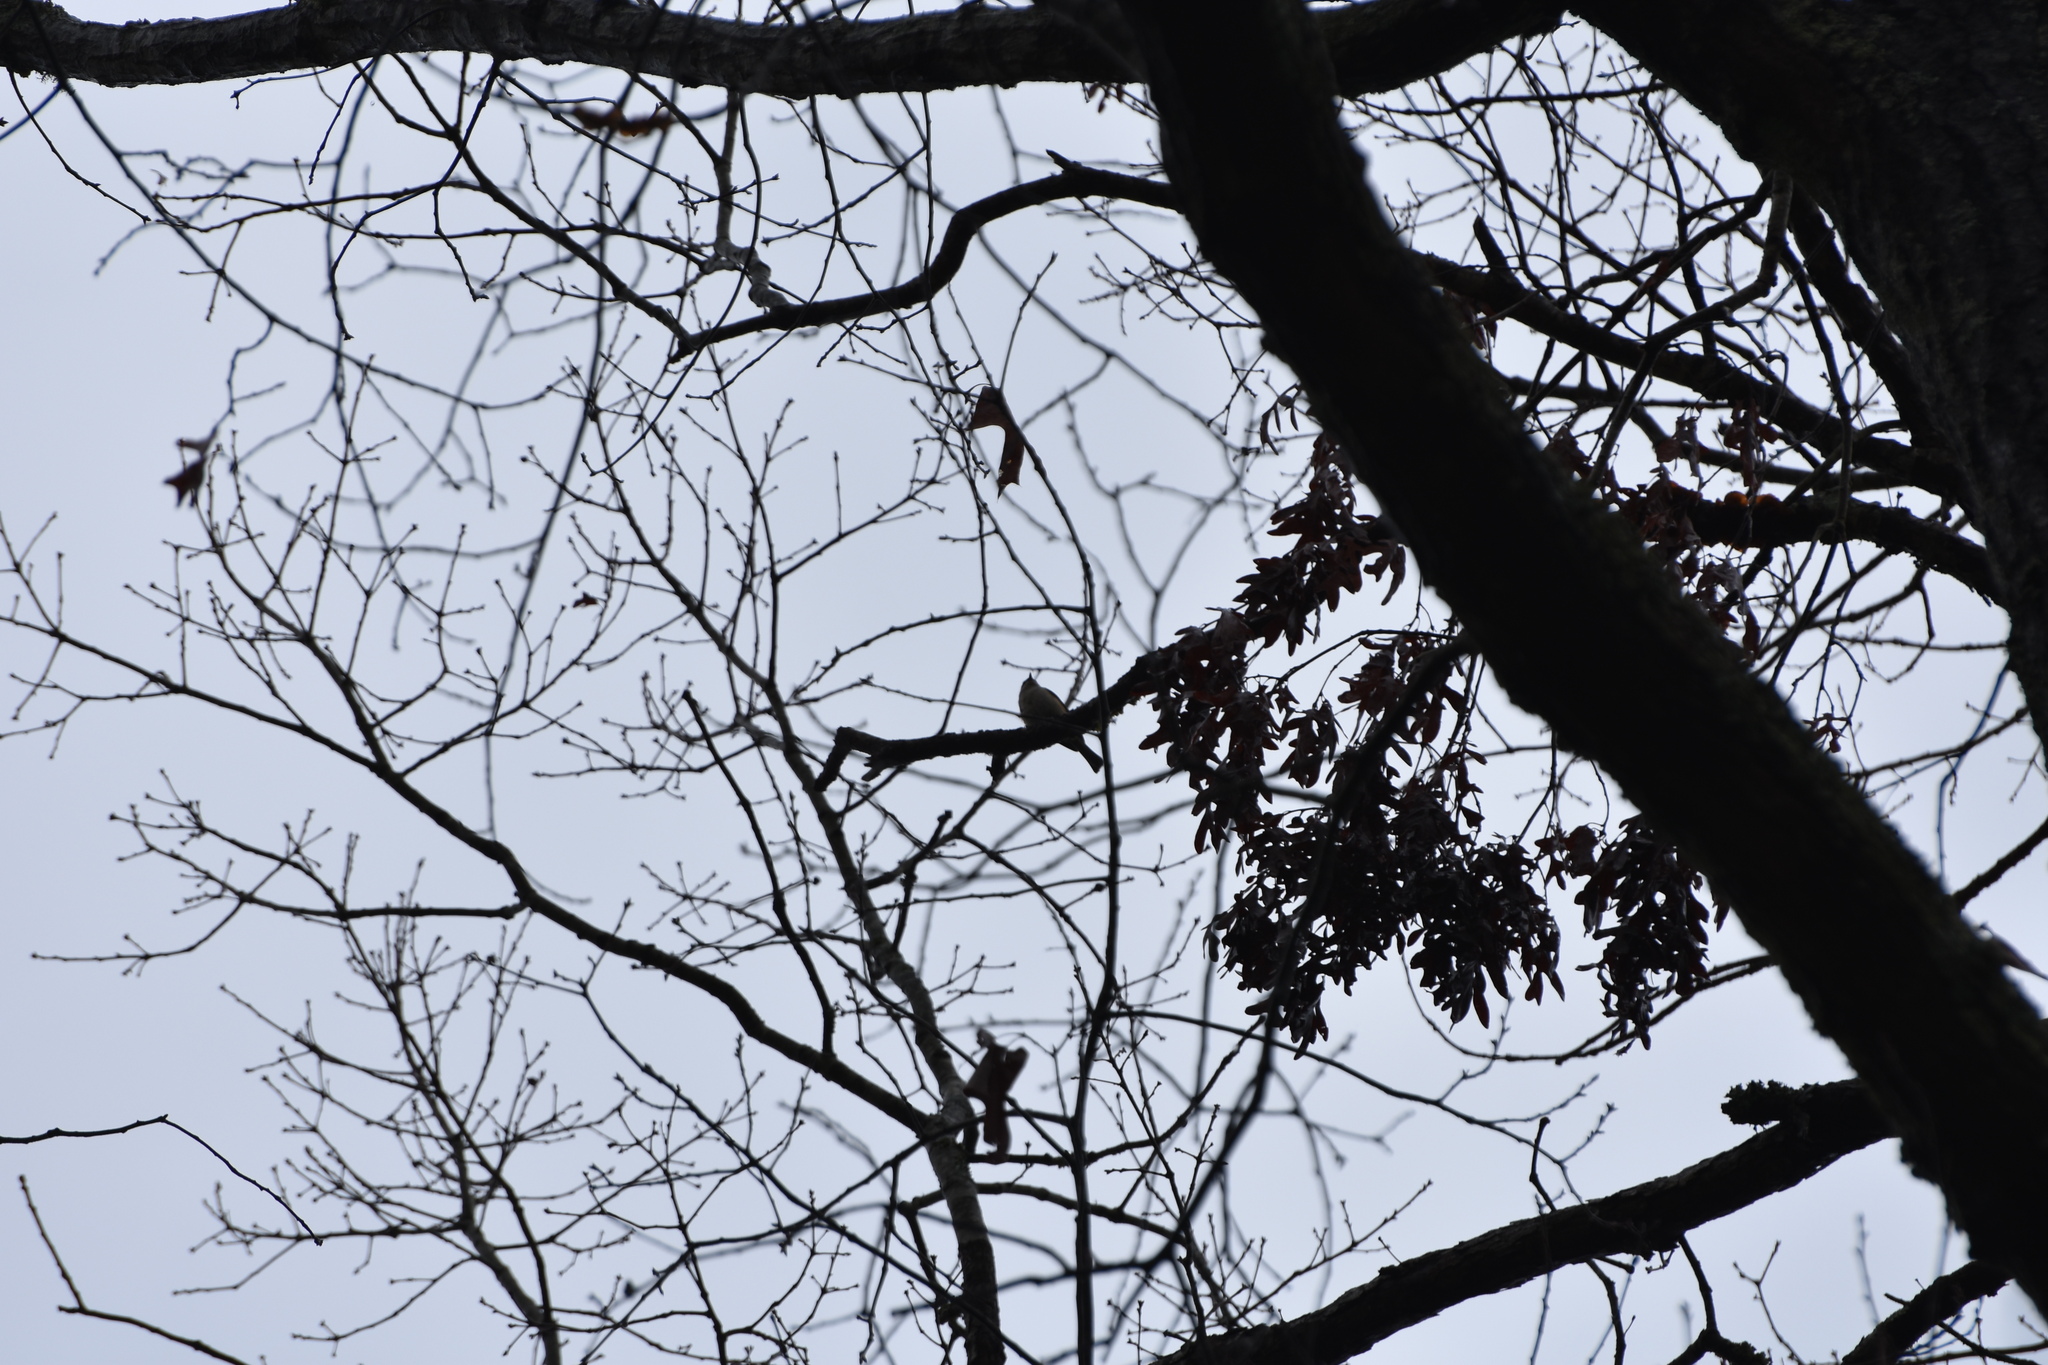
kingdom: Animalia
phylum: Chordata
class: Aves
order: Passeriformes
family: Paridae
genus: Baeolophus
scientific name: Baeolophus bicolor
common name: Tufted titmouse
